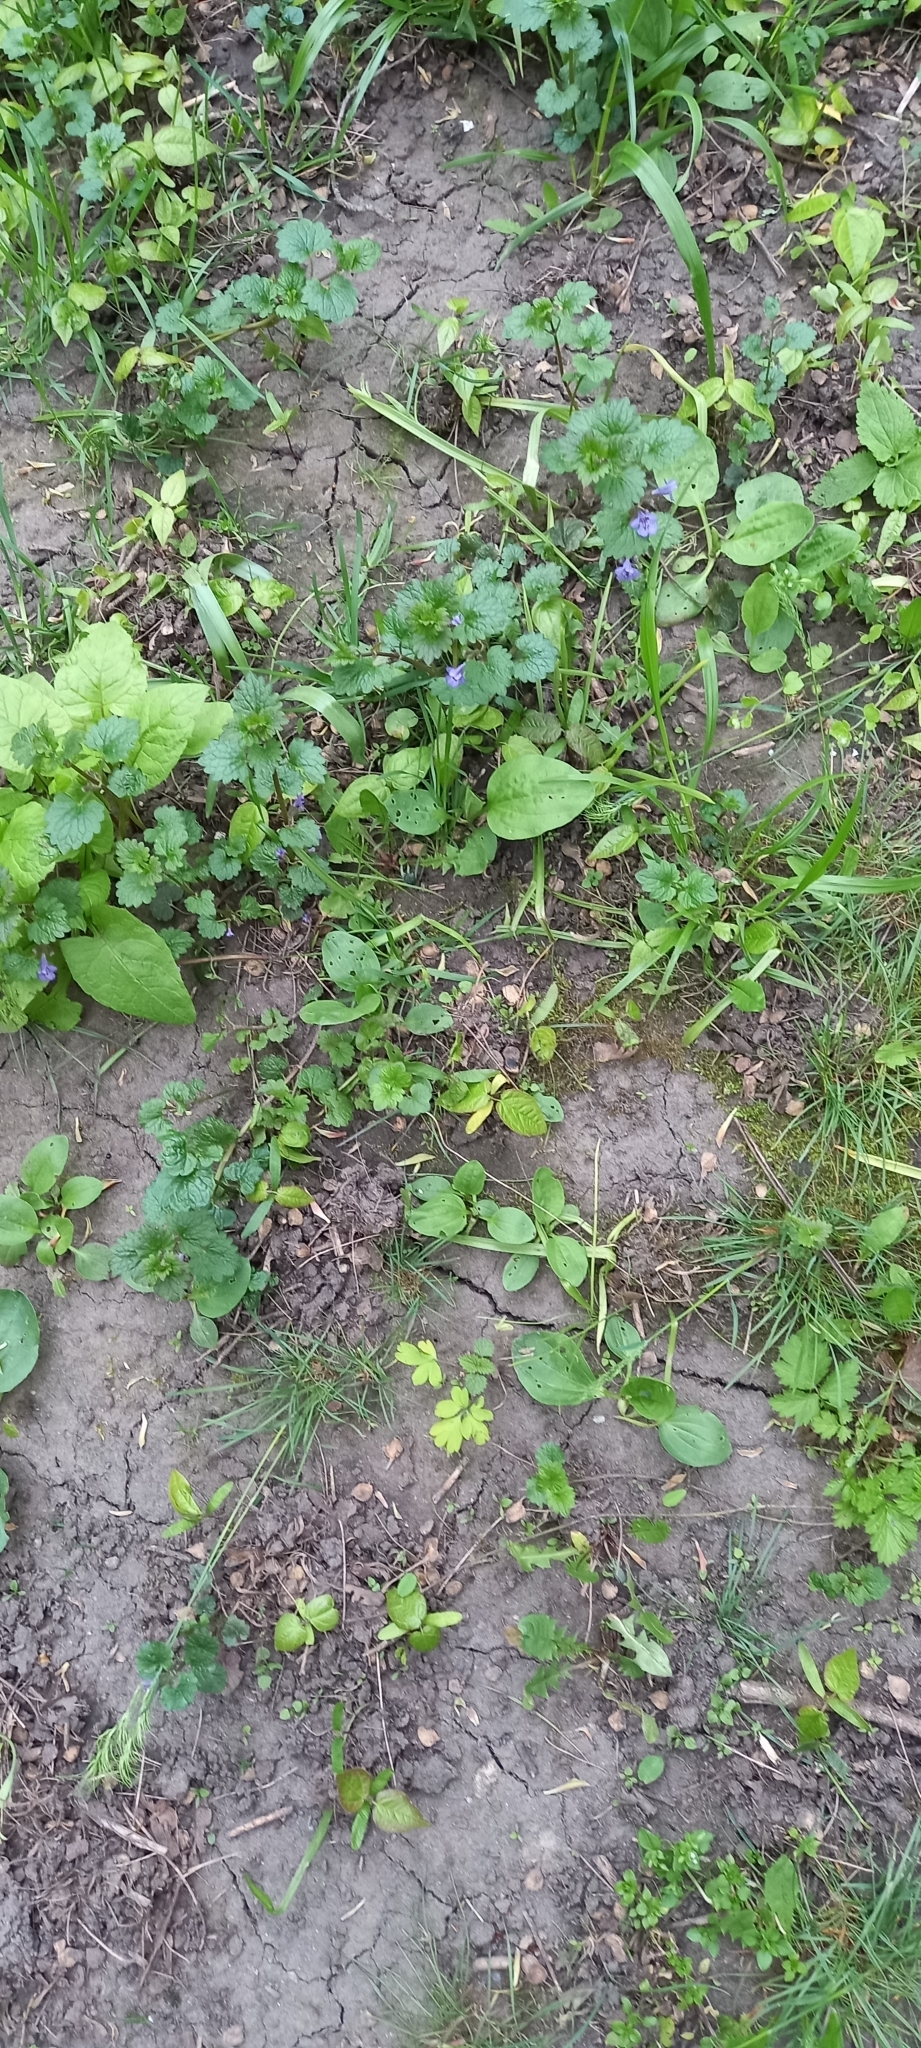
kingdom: Plantae
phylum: Tracheophyta
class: Magnoliopsida
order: Lamiales
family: Lamiaceae
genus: Glechoma
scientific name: Glechoma hederacea
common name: Ground ivy
